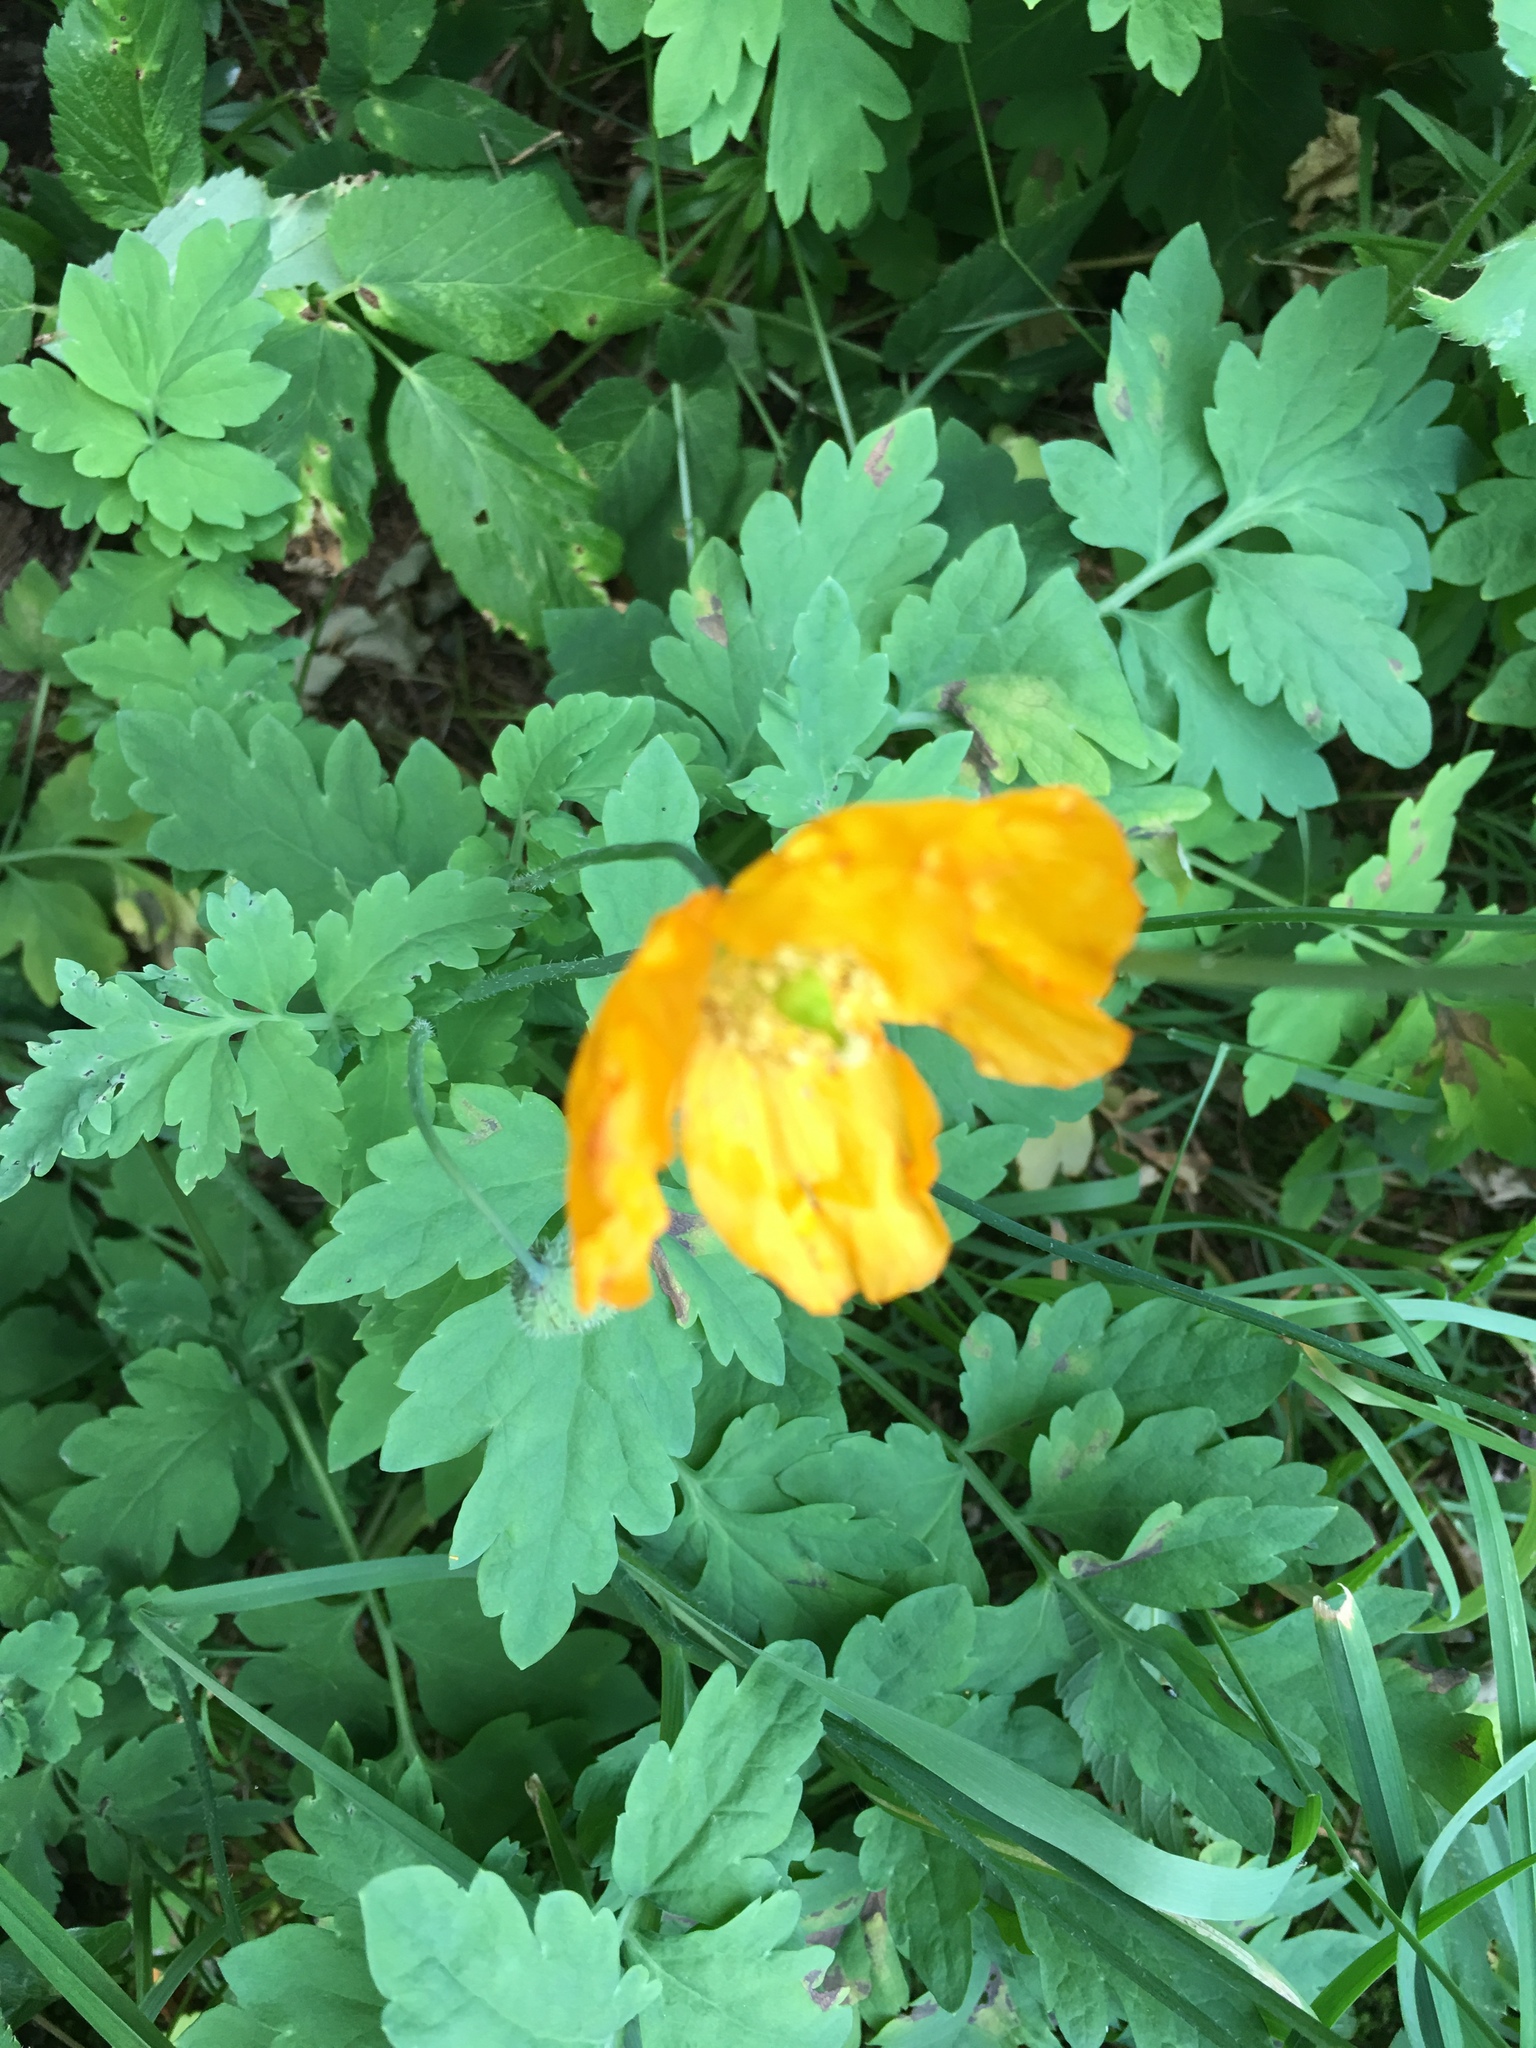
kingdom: Plantae
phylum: Tracheophyta
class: Magnoliopsida
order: Ranunculales
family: Papaveraceae
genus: Papaver
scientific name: Papaver cambricum
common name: Poppy
